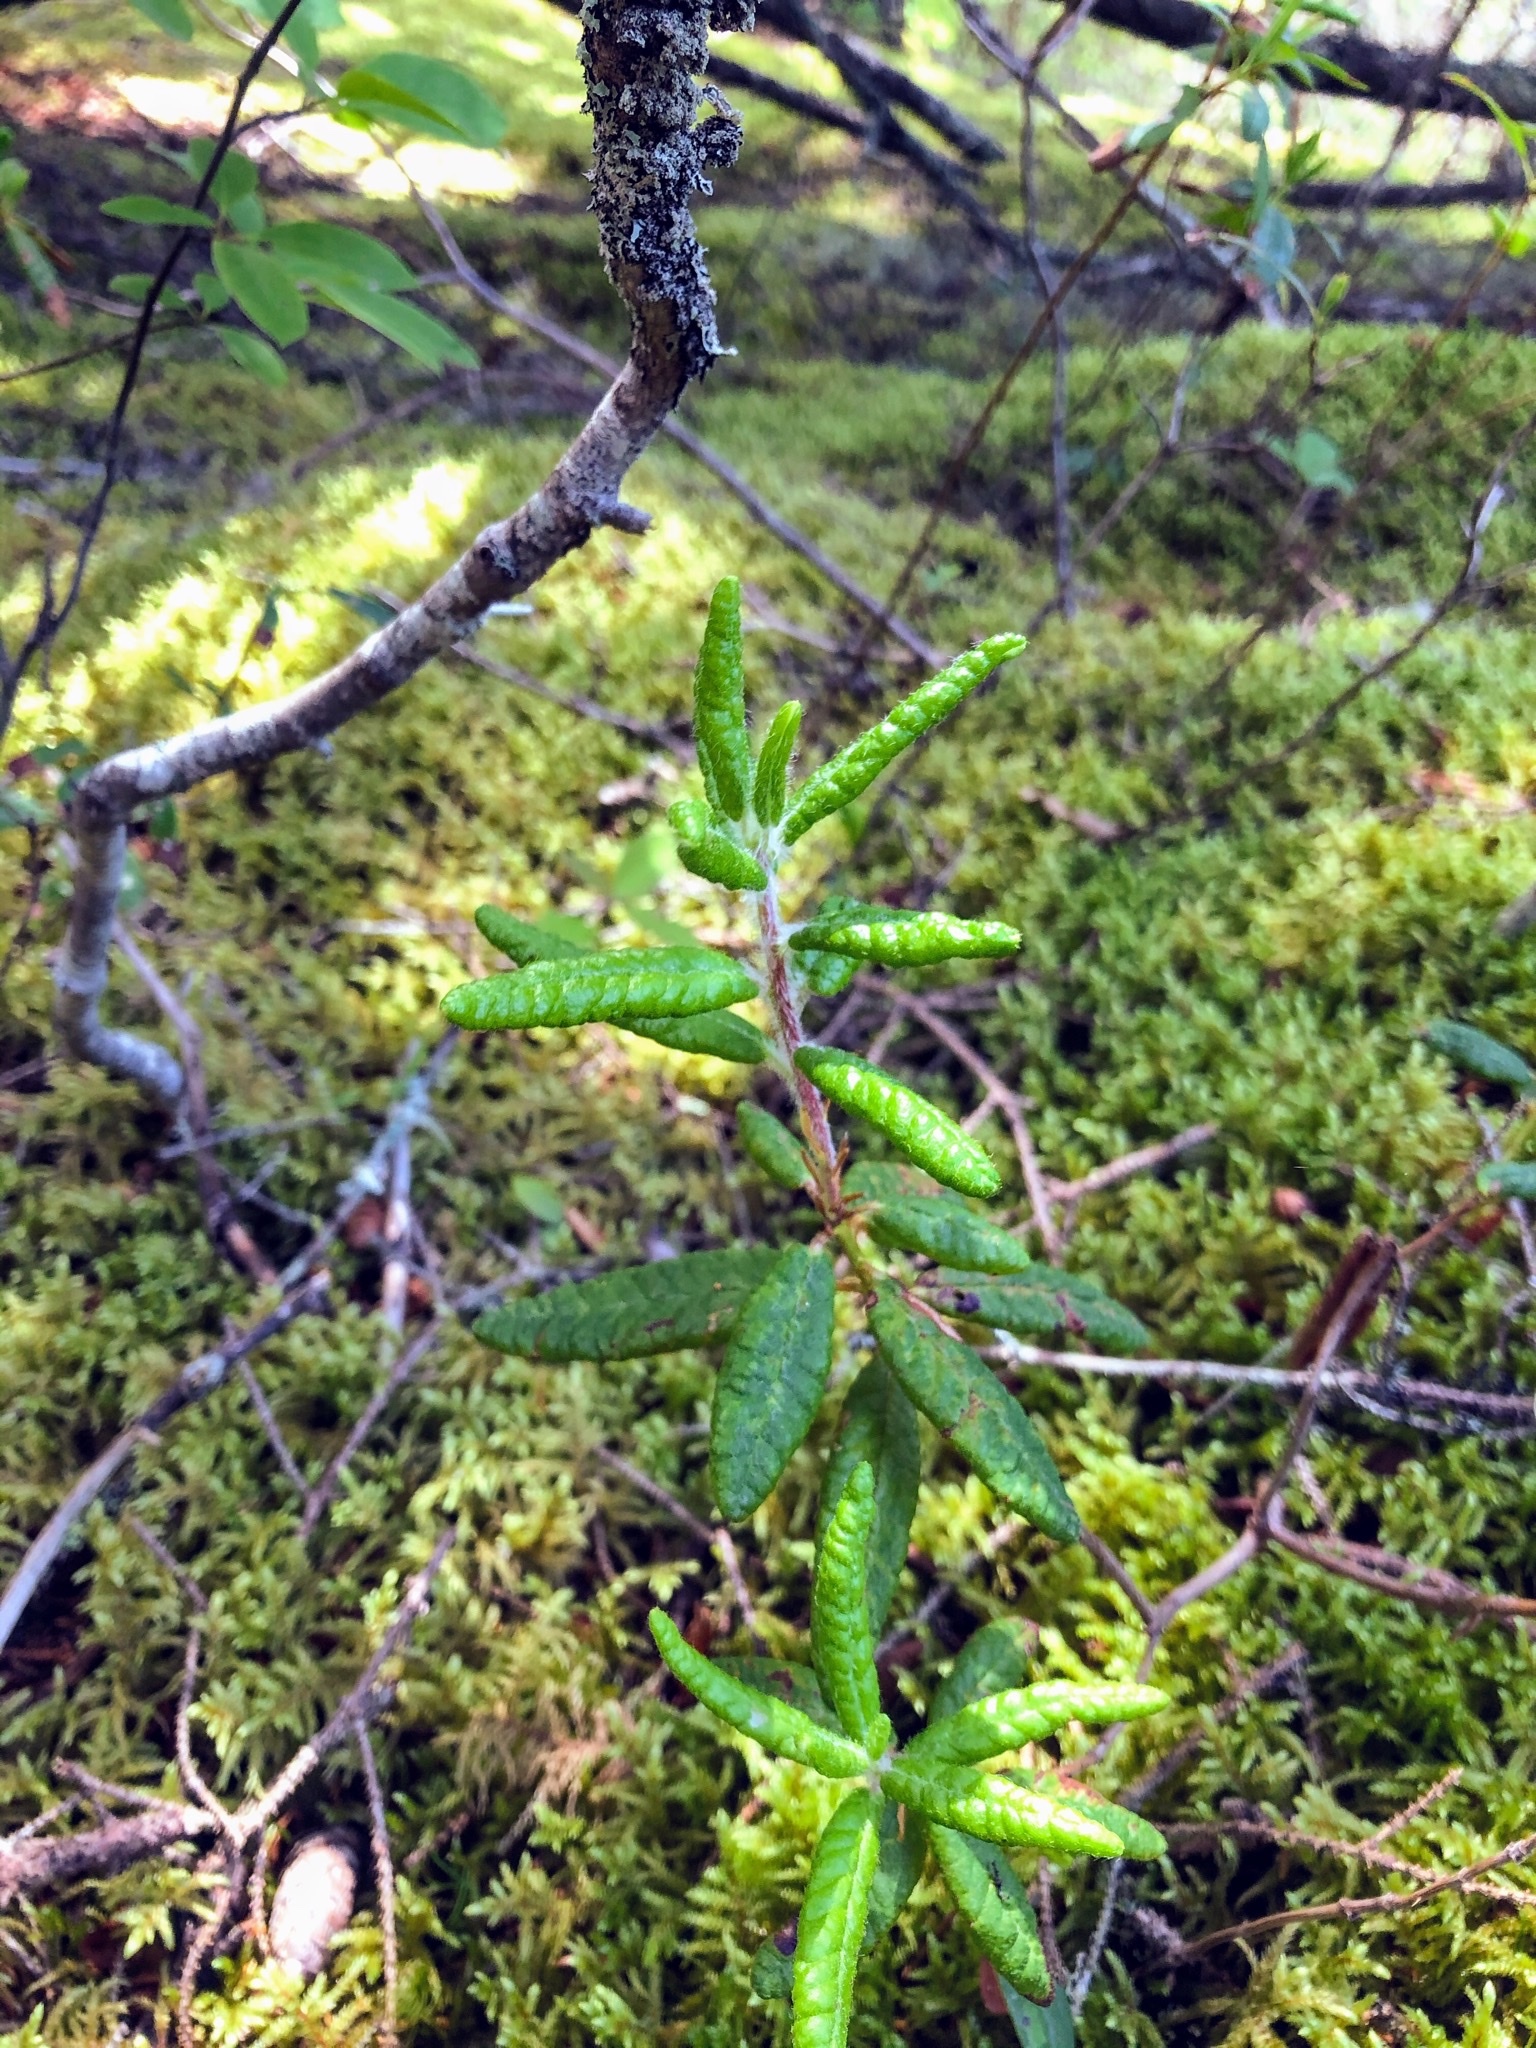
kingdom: Plantae
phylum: Tracheophyta
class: Magnoliopsida
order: Ericales
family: Ericaceae
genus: Rhododendron
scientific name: Rhododendron groenlandicum
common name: Bog labrador tea
